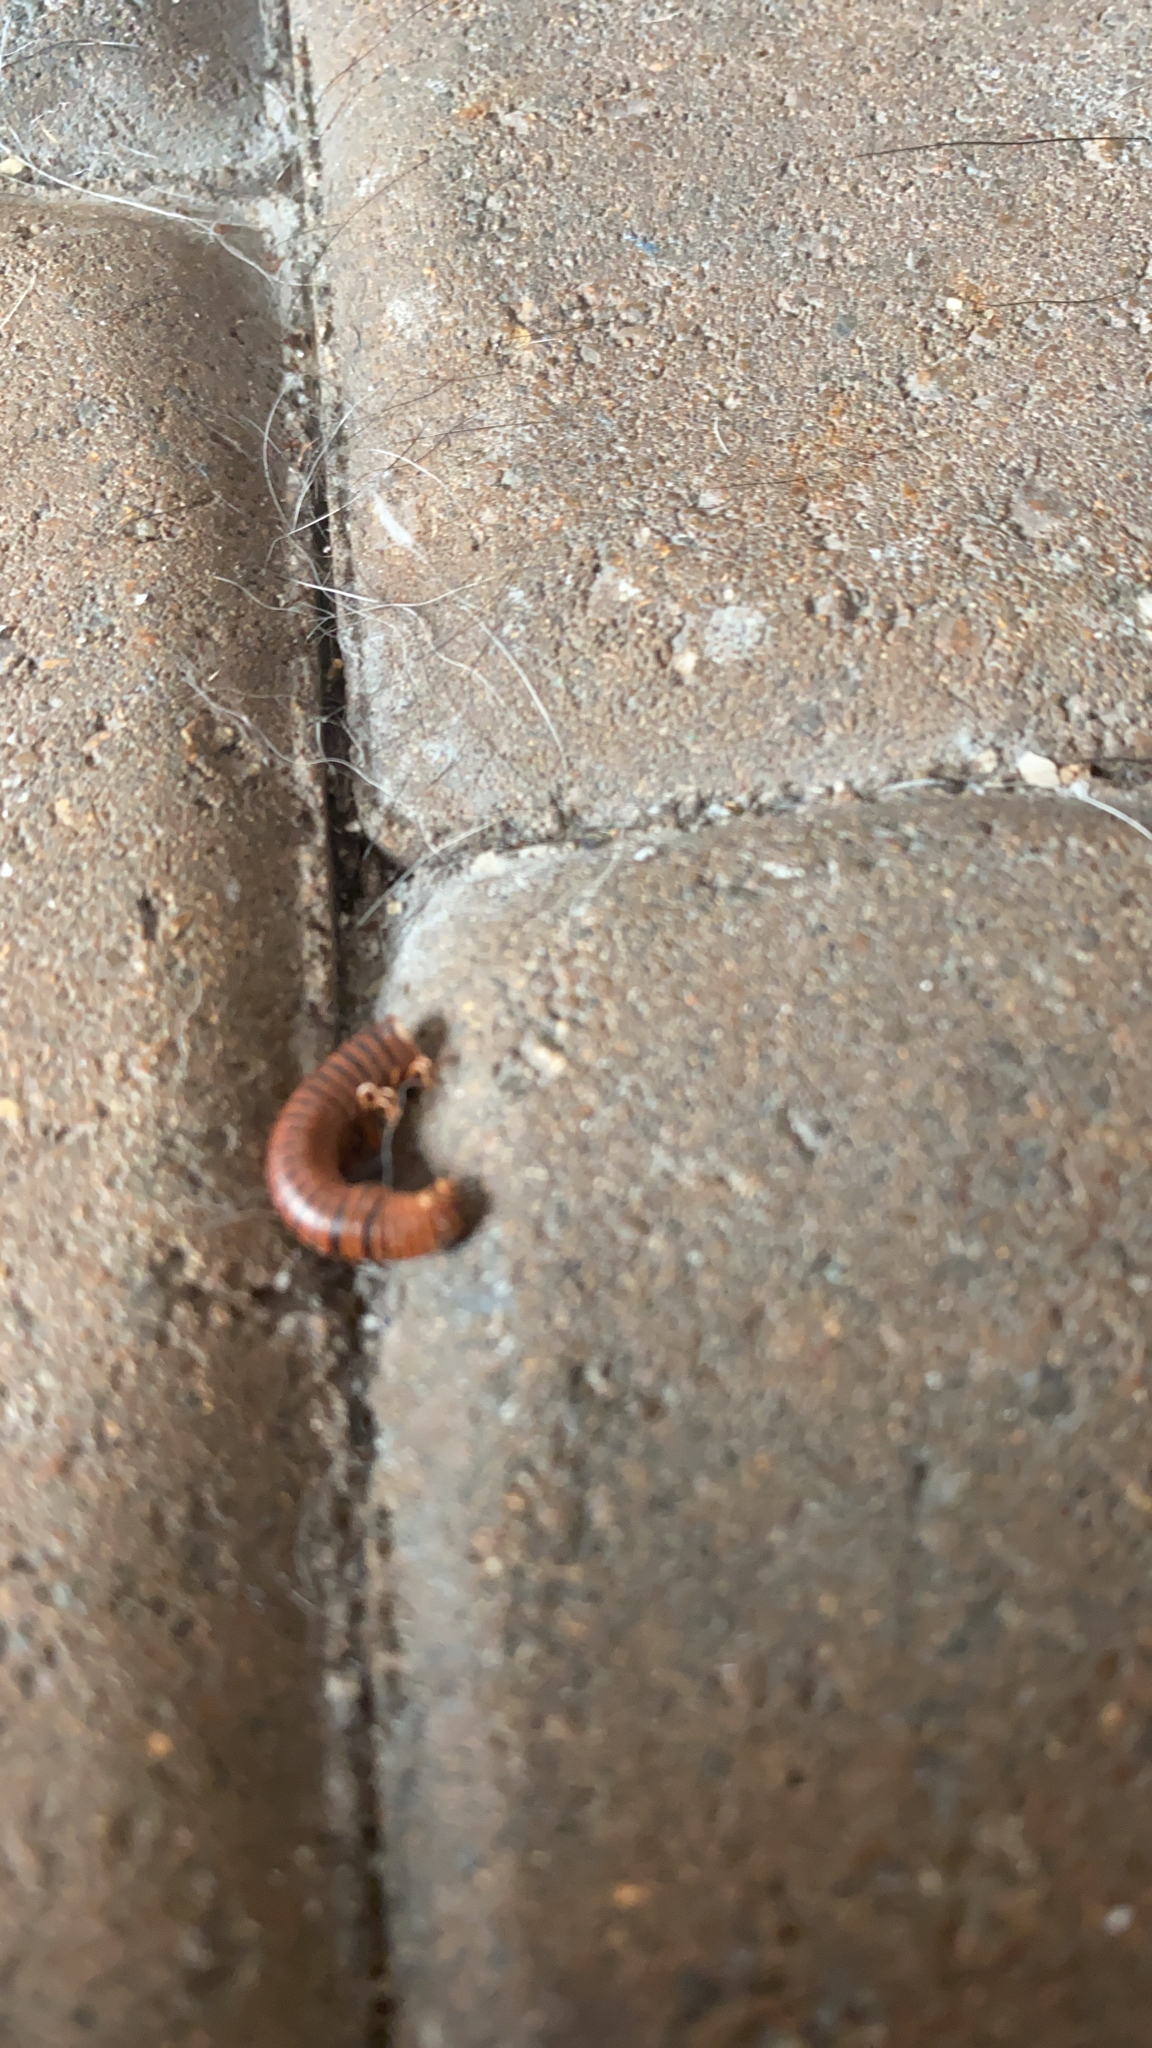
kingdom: Animalia
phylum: Arthropoda
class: Diplopoda
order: Spirobolida
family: Pachybolidae
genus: Trigoniulus
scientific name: Trigoniulus corallinus
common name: Millipede
